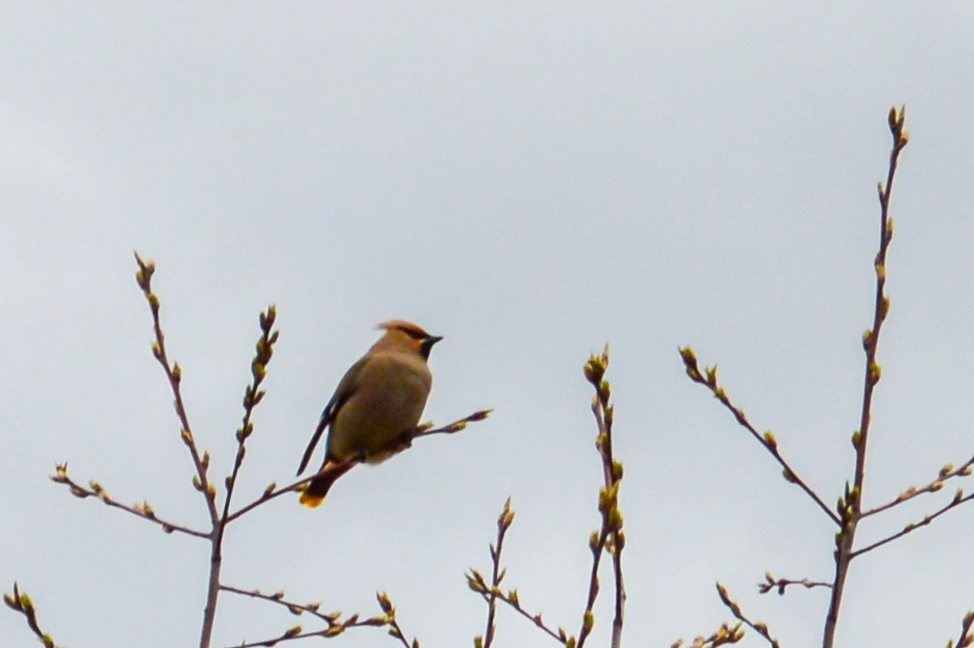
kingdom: Animalia
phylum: Chordata
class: Aves
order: Passeriformes
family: Bombycillidae
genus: Bombycilla
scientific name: Bombycilla garrulus
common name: Bohemian waxwing
